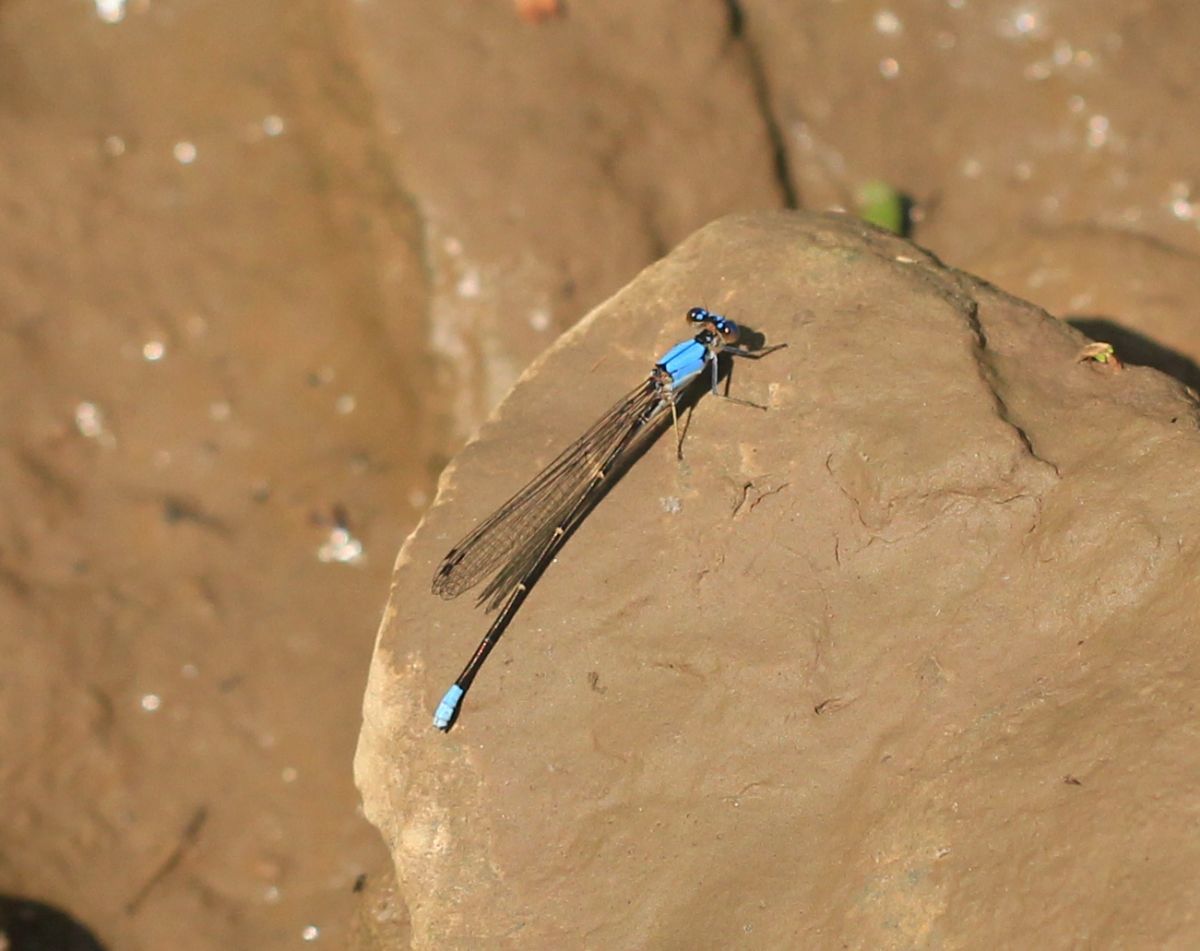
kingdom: Animalia
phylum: Arthropoda
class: Insecta
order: Odonata
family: Coenagrionidae
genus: Argia
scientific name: Argia apicalis
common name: Blue-fronted dancer
